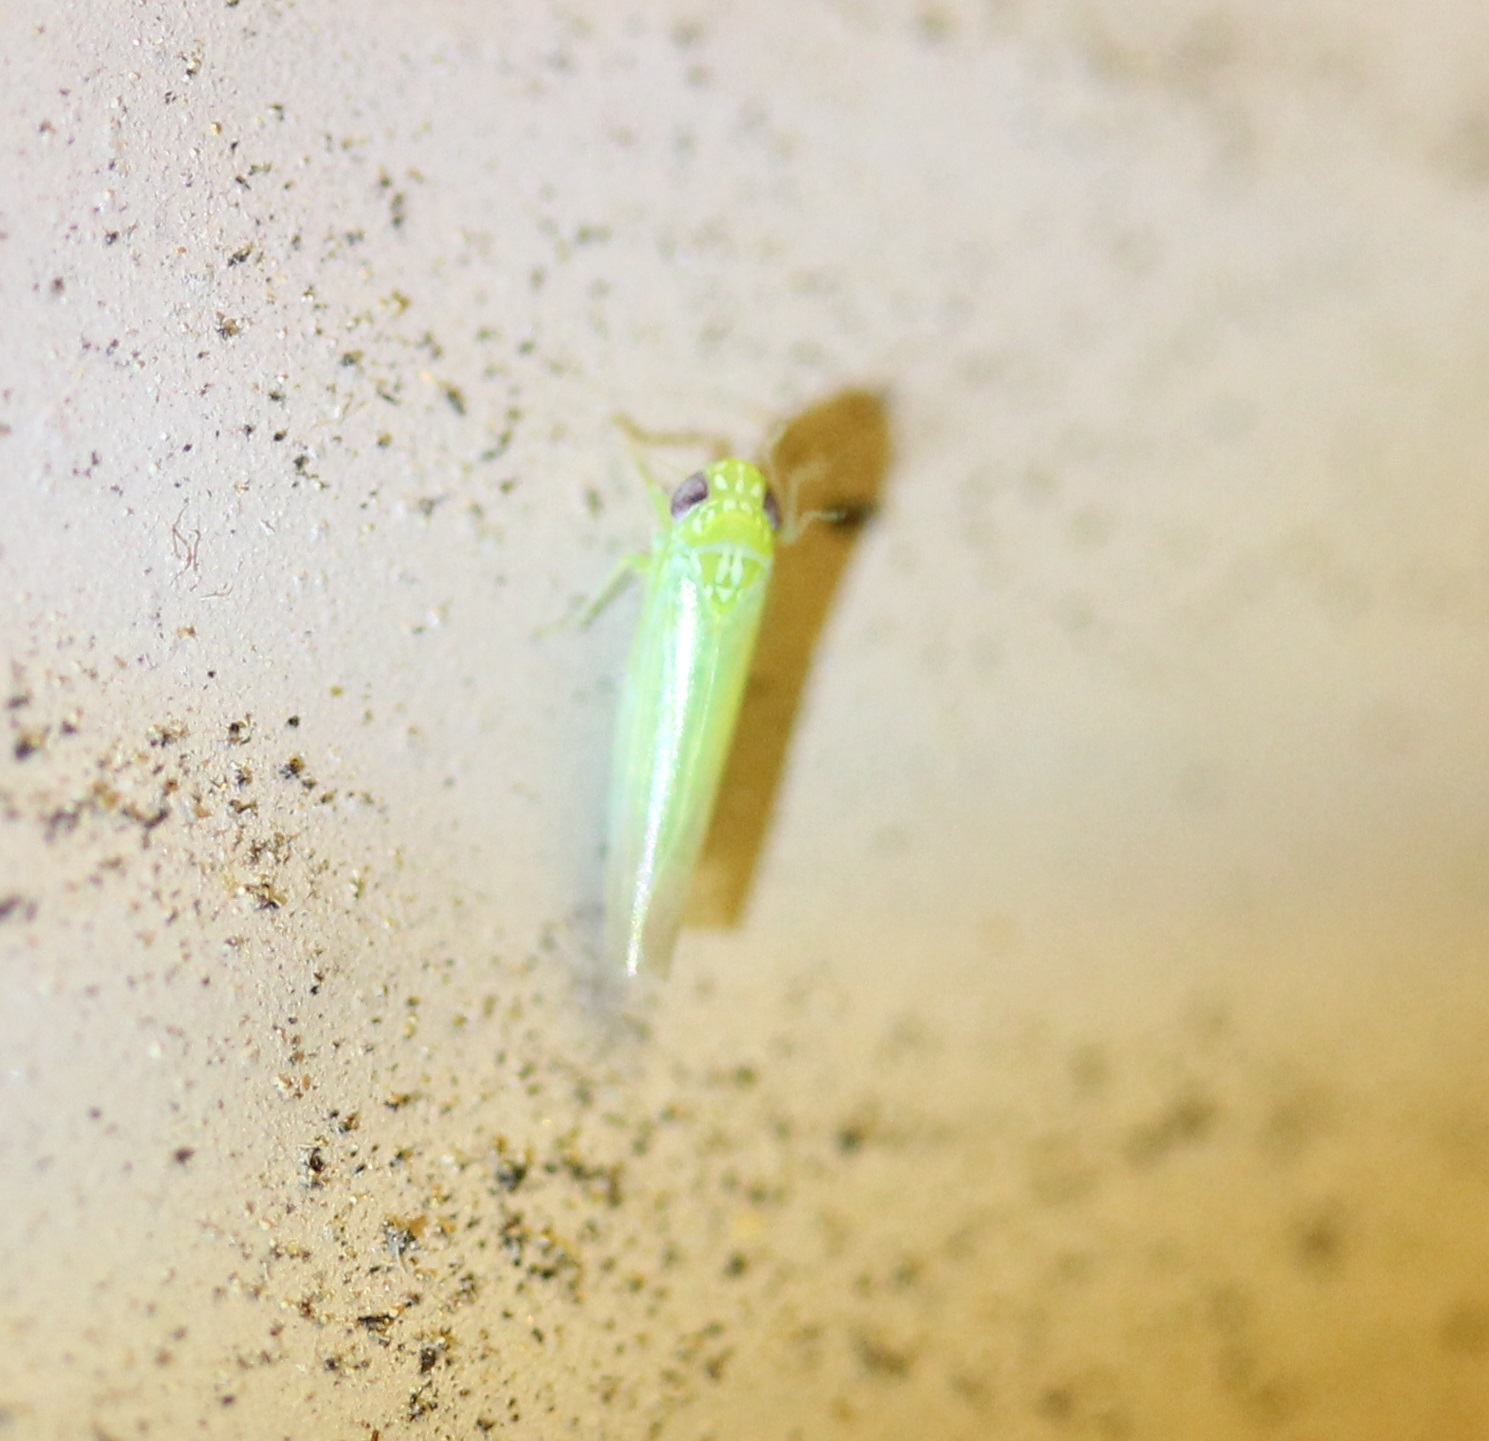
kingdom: Animalia
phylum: Arthropoda
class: Insecta
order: Hemiptera
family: Cicadellidae
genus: Empoasca
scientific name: Empoasca fabae
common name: Potato leafhopper
